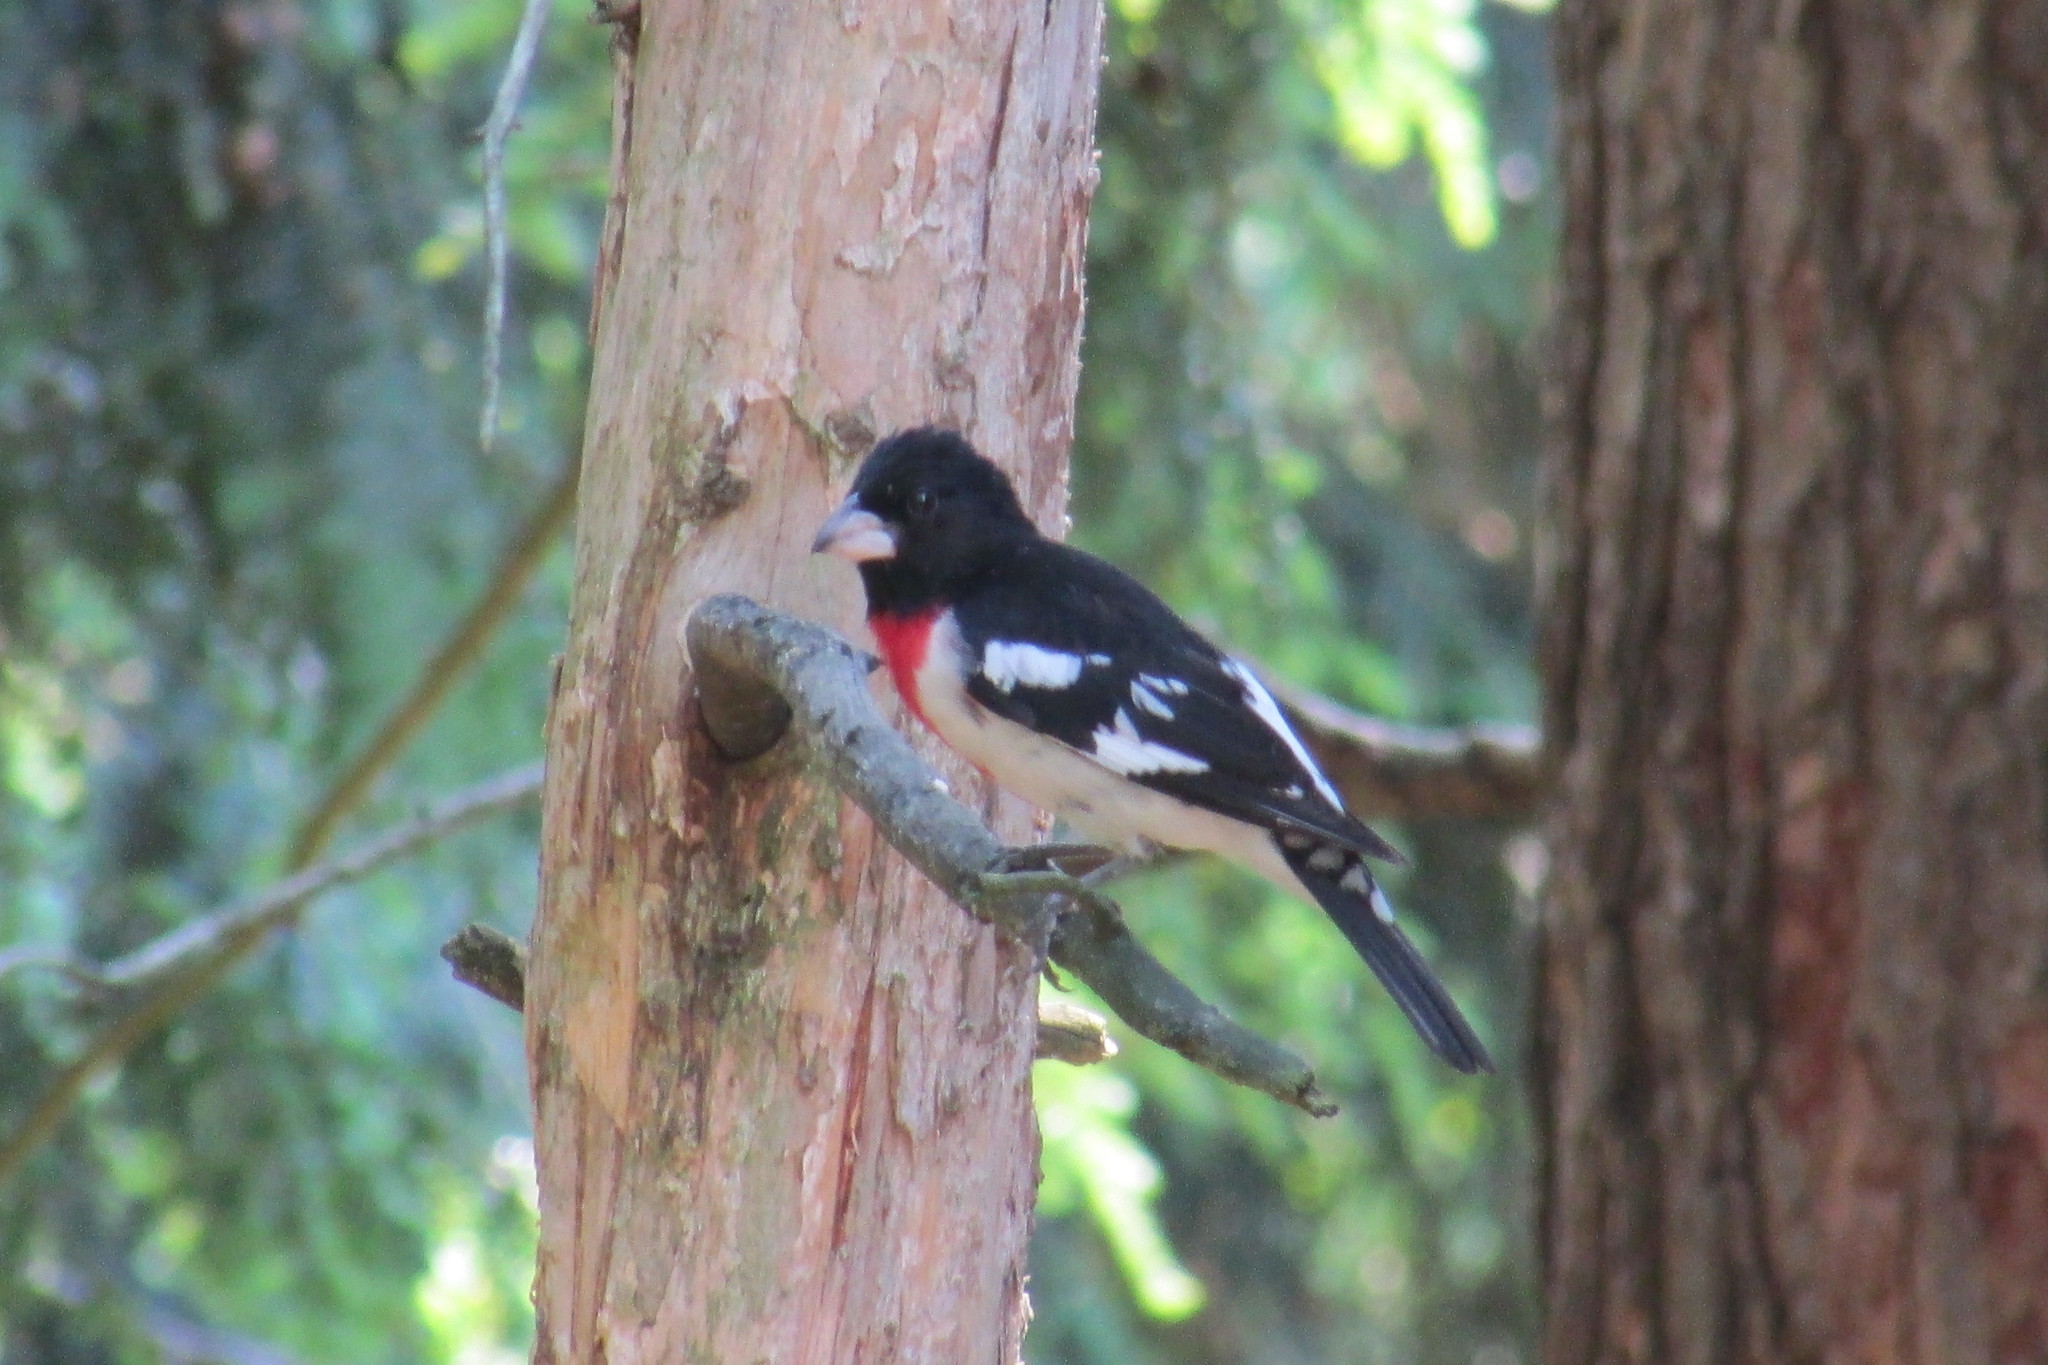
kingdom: Animalia
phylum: Chordata
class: Aves
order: Passeriformes
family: Cardinalidae
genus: Pheucticus
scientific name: Pheucticus ludovicianus
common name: Rose-breasted grosbeak
